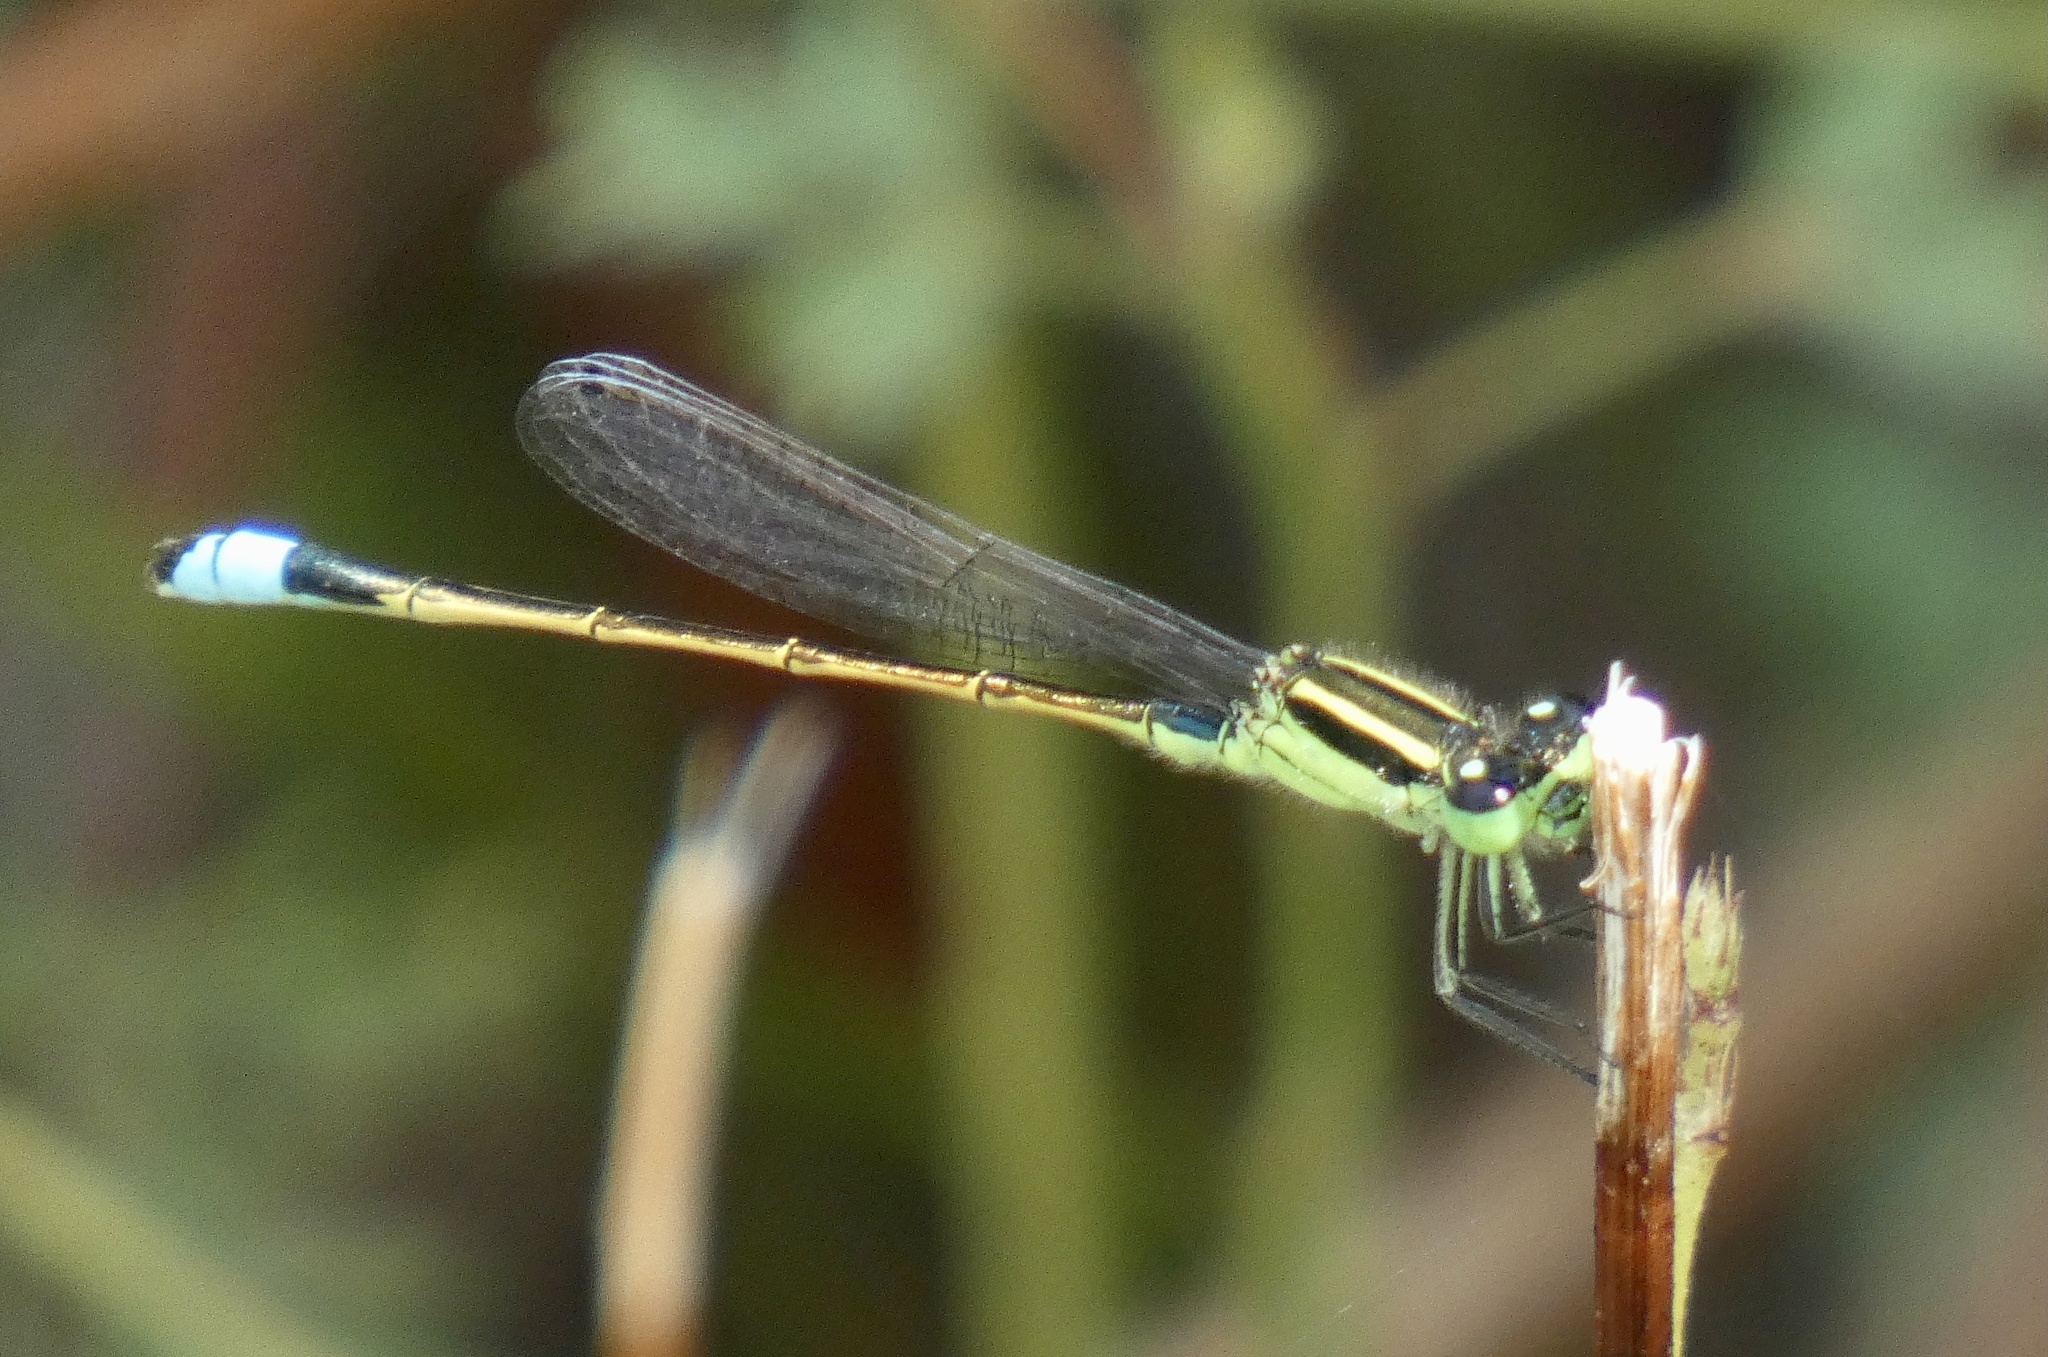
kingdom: Animalia
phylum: Arthropoda
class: Insecta
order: Odonata
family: Coenagrionidae
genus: Ischnura
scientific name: Ischnura ramburii
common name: Rambur's forktail
